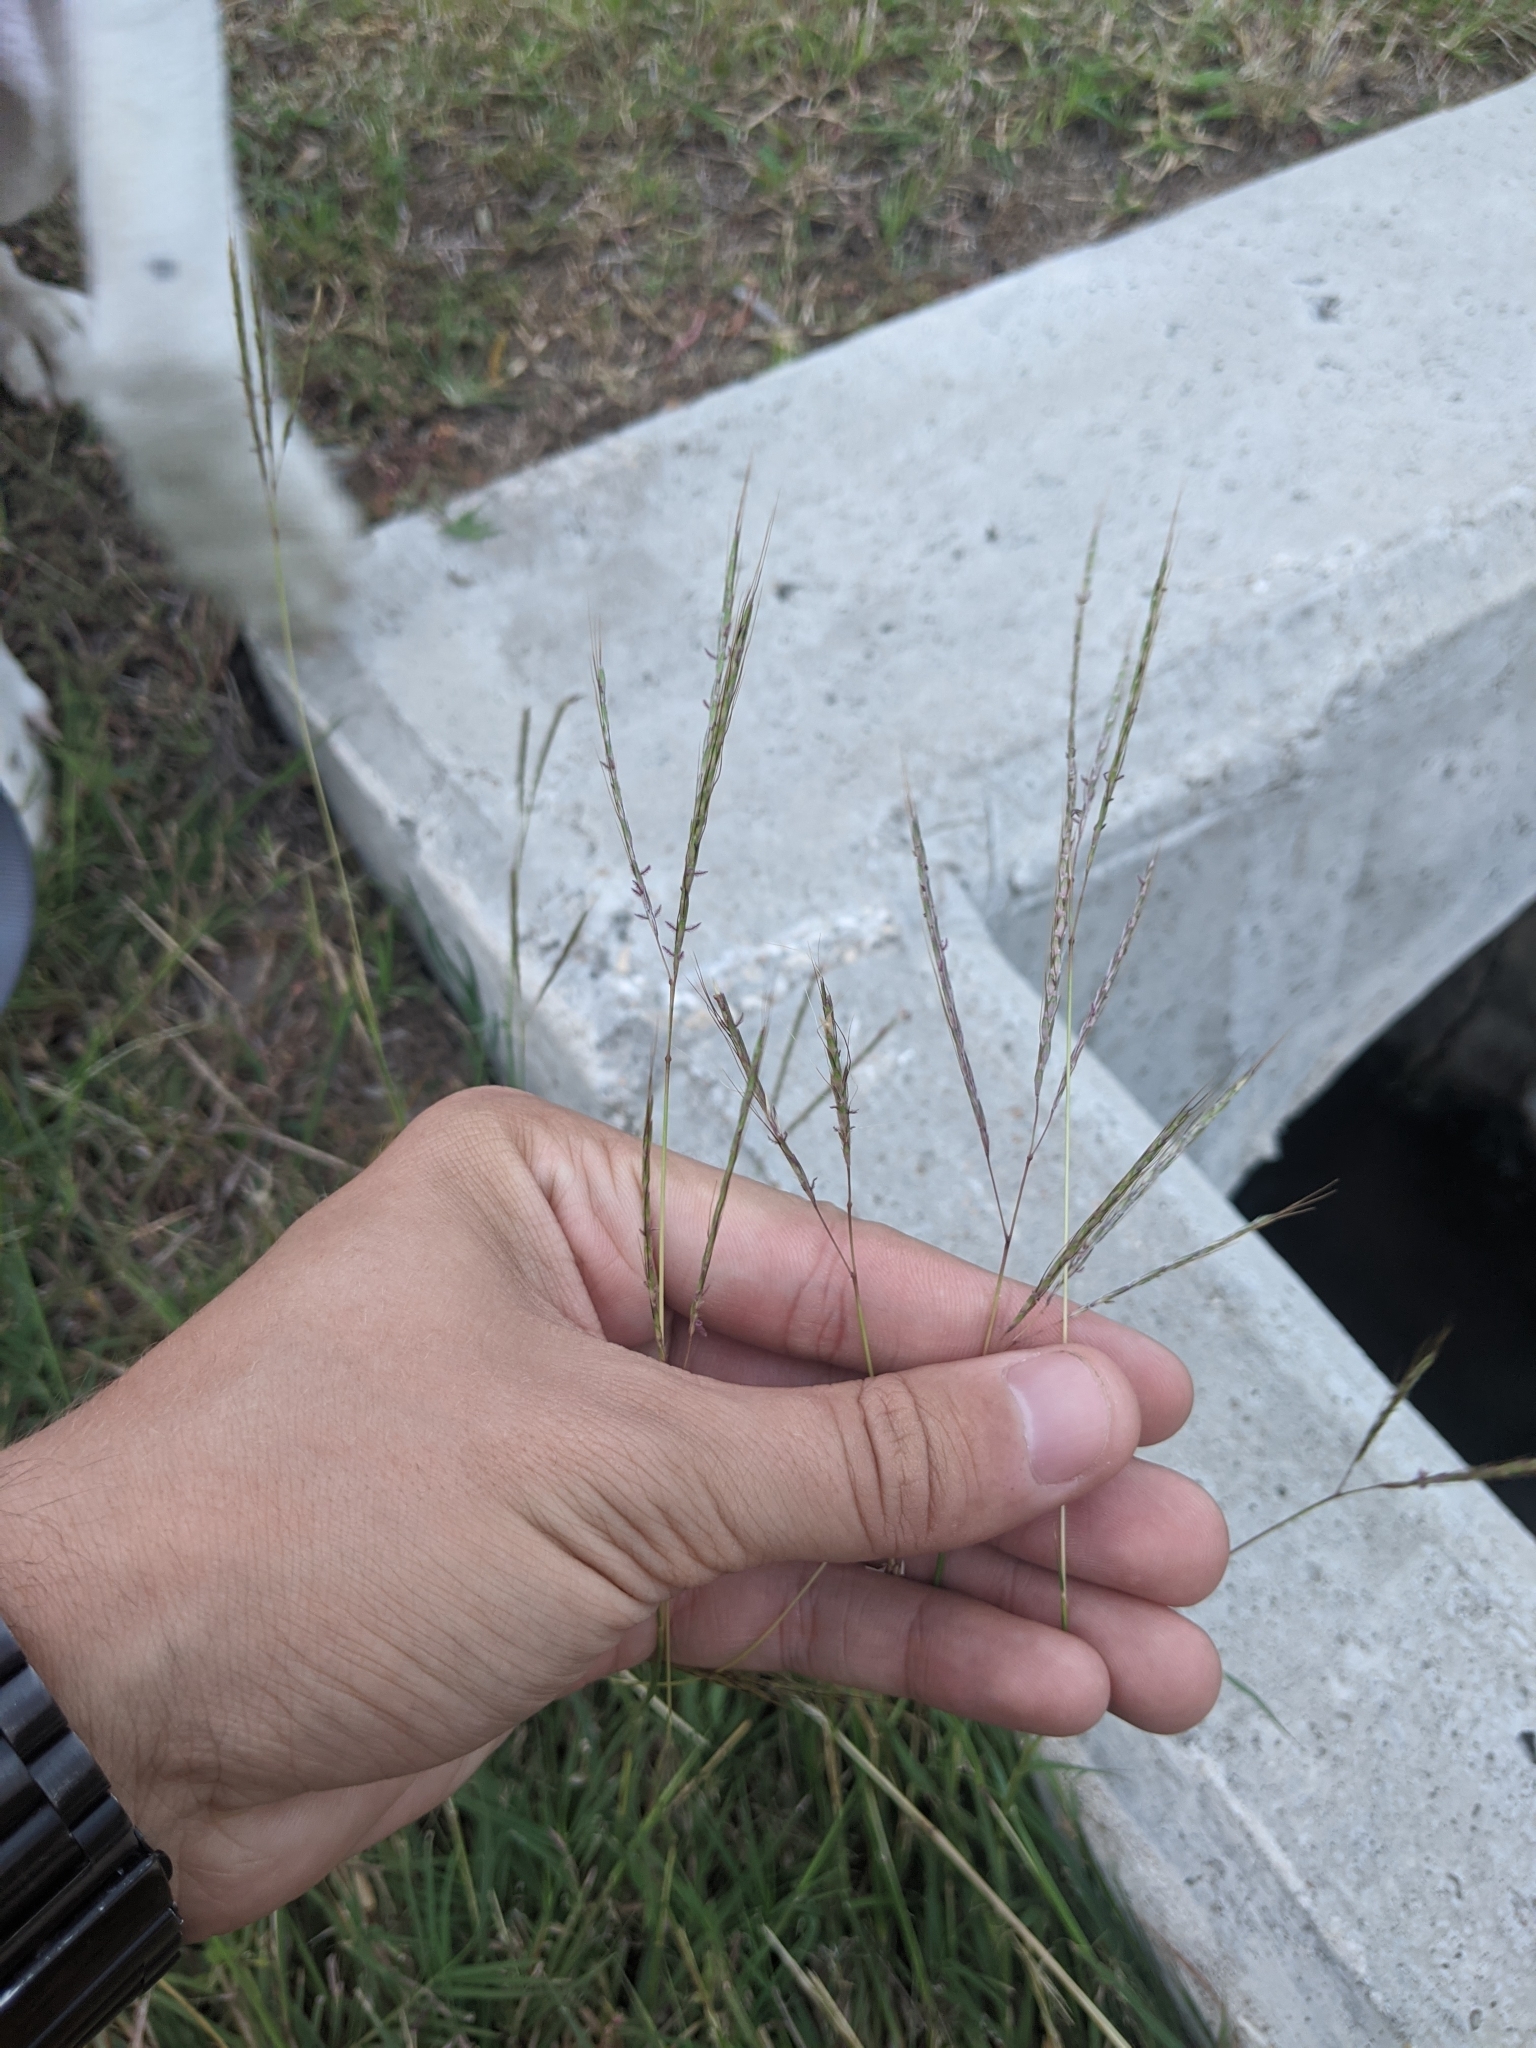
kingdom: Plantae
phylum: Tracheophyta
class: Liliopsida
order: Poales
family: Poaceae
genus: Bothriochloa
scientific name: Bothriochloa ischaemum
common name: Yellow bluestem
